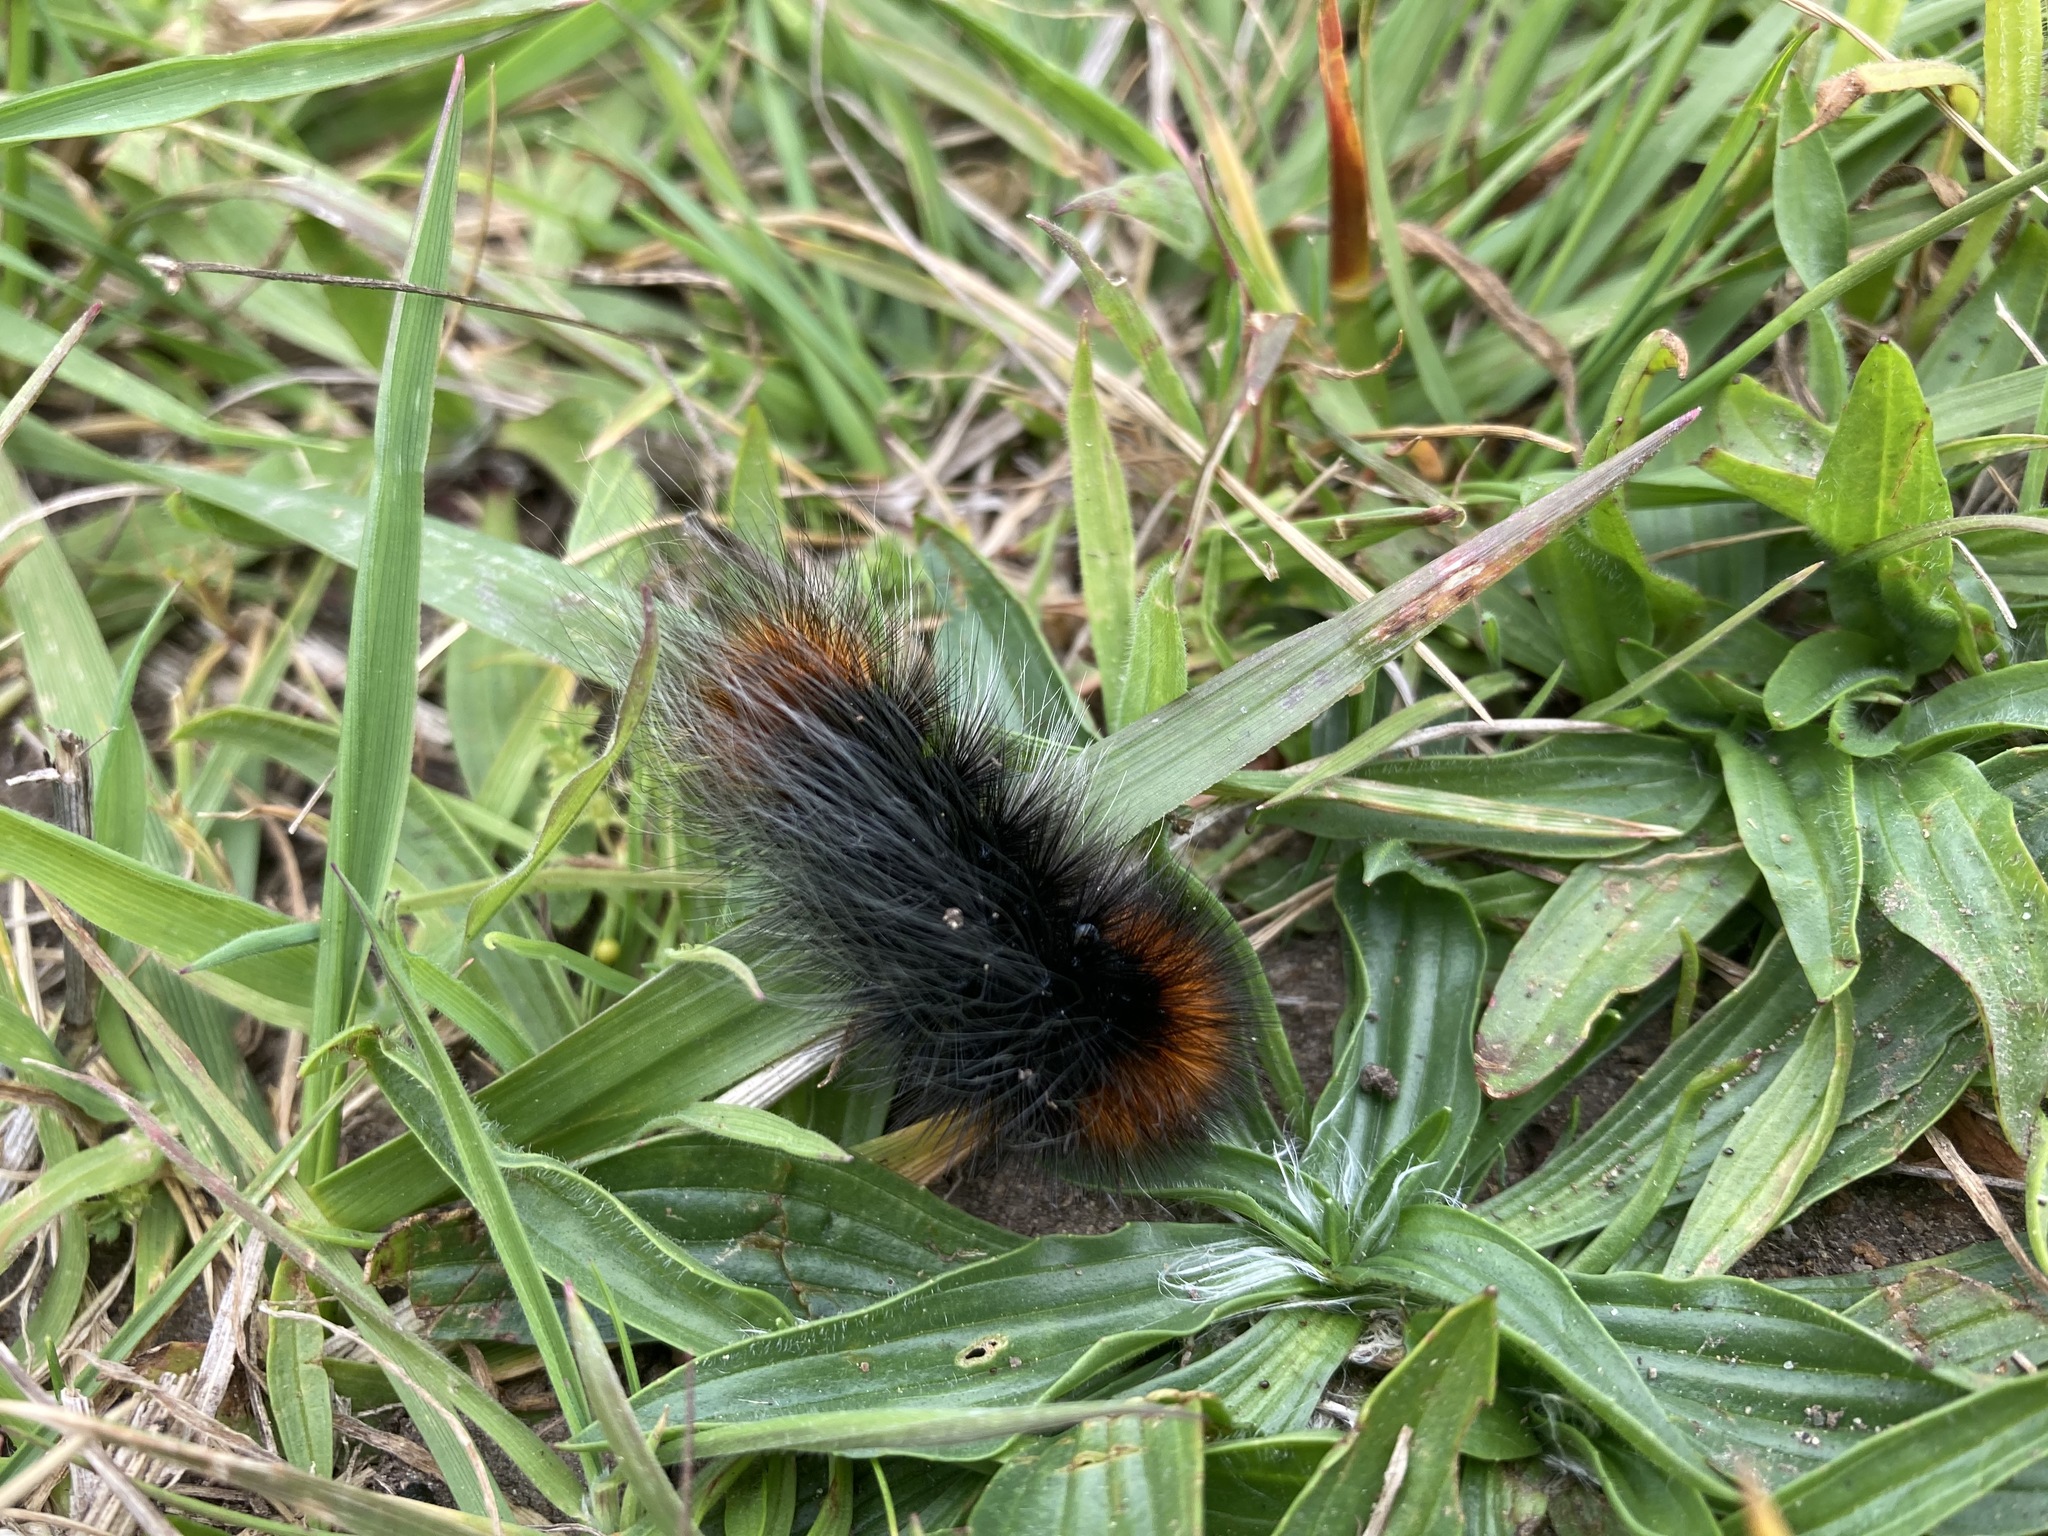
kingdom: Animalia
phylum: Arthropoda
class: Insecta
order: Lepidoptera
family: Erebidae
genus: Arctia
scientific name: Arctia tigrina
